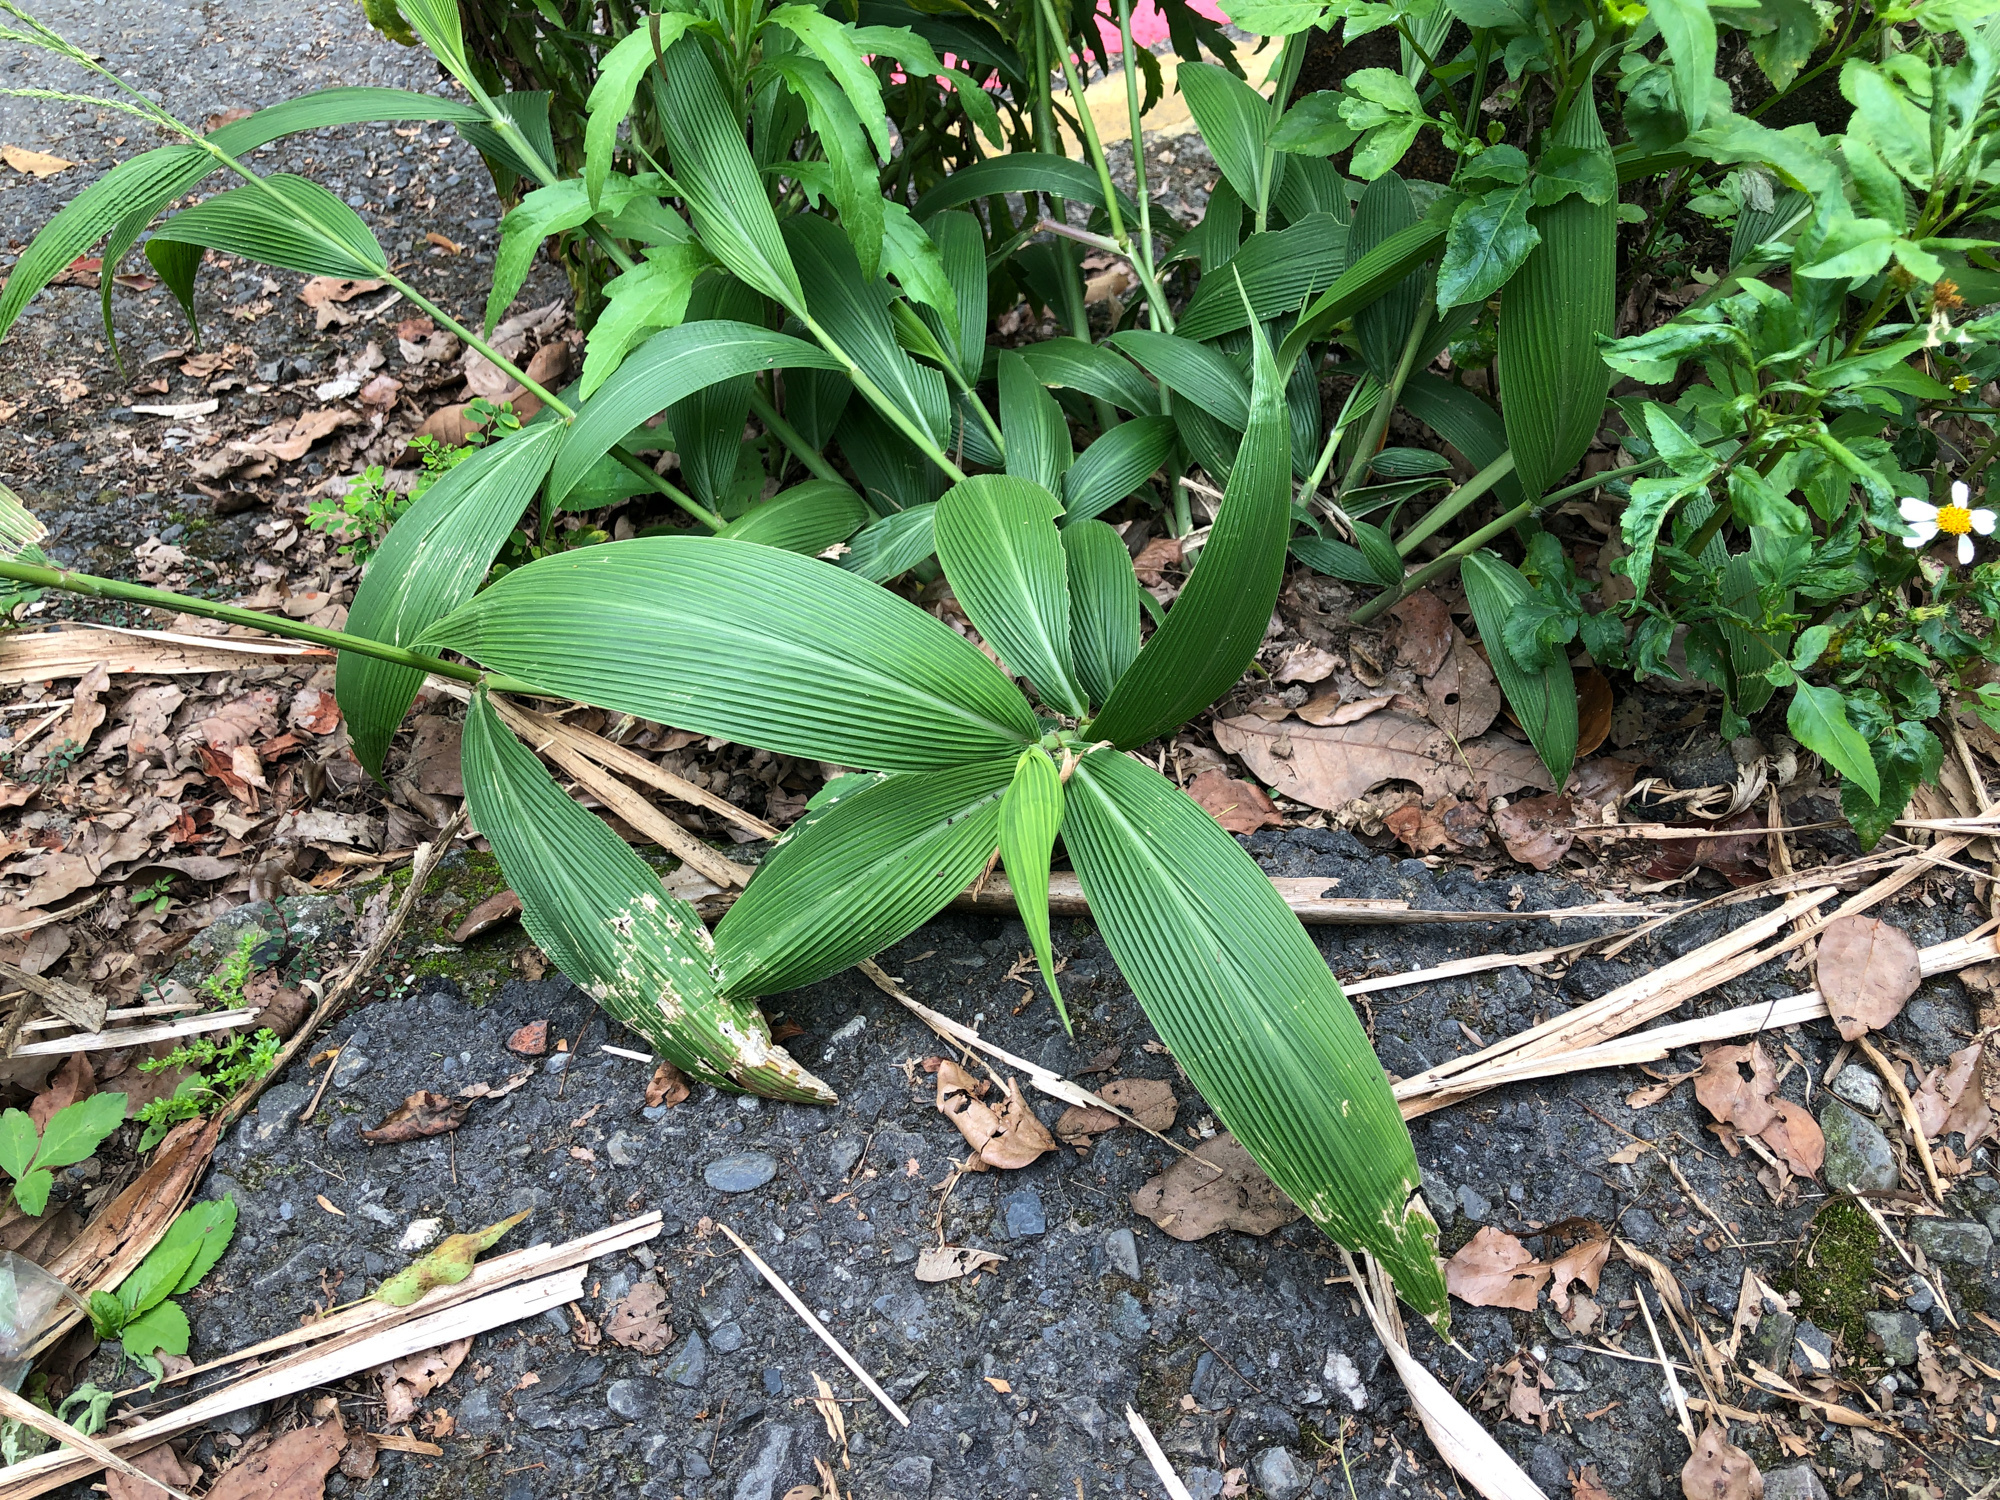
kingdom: Plantae
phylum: Tracheophyta
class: Liliopsida
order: Poales
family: Poaceae
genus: Setaria
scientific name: Setaria palmifolia
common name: Broadleaved bristlegrass
